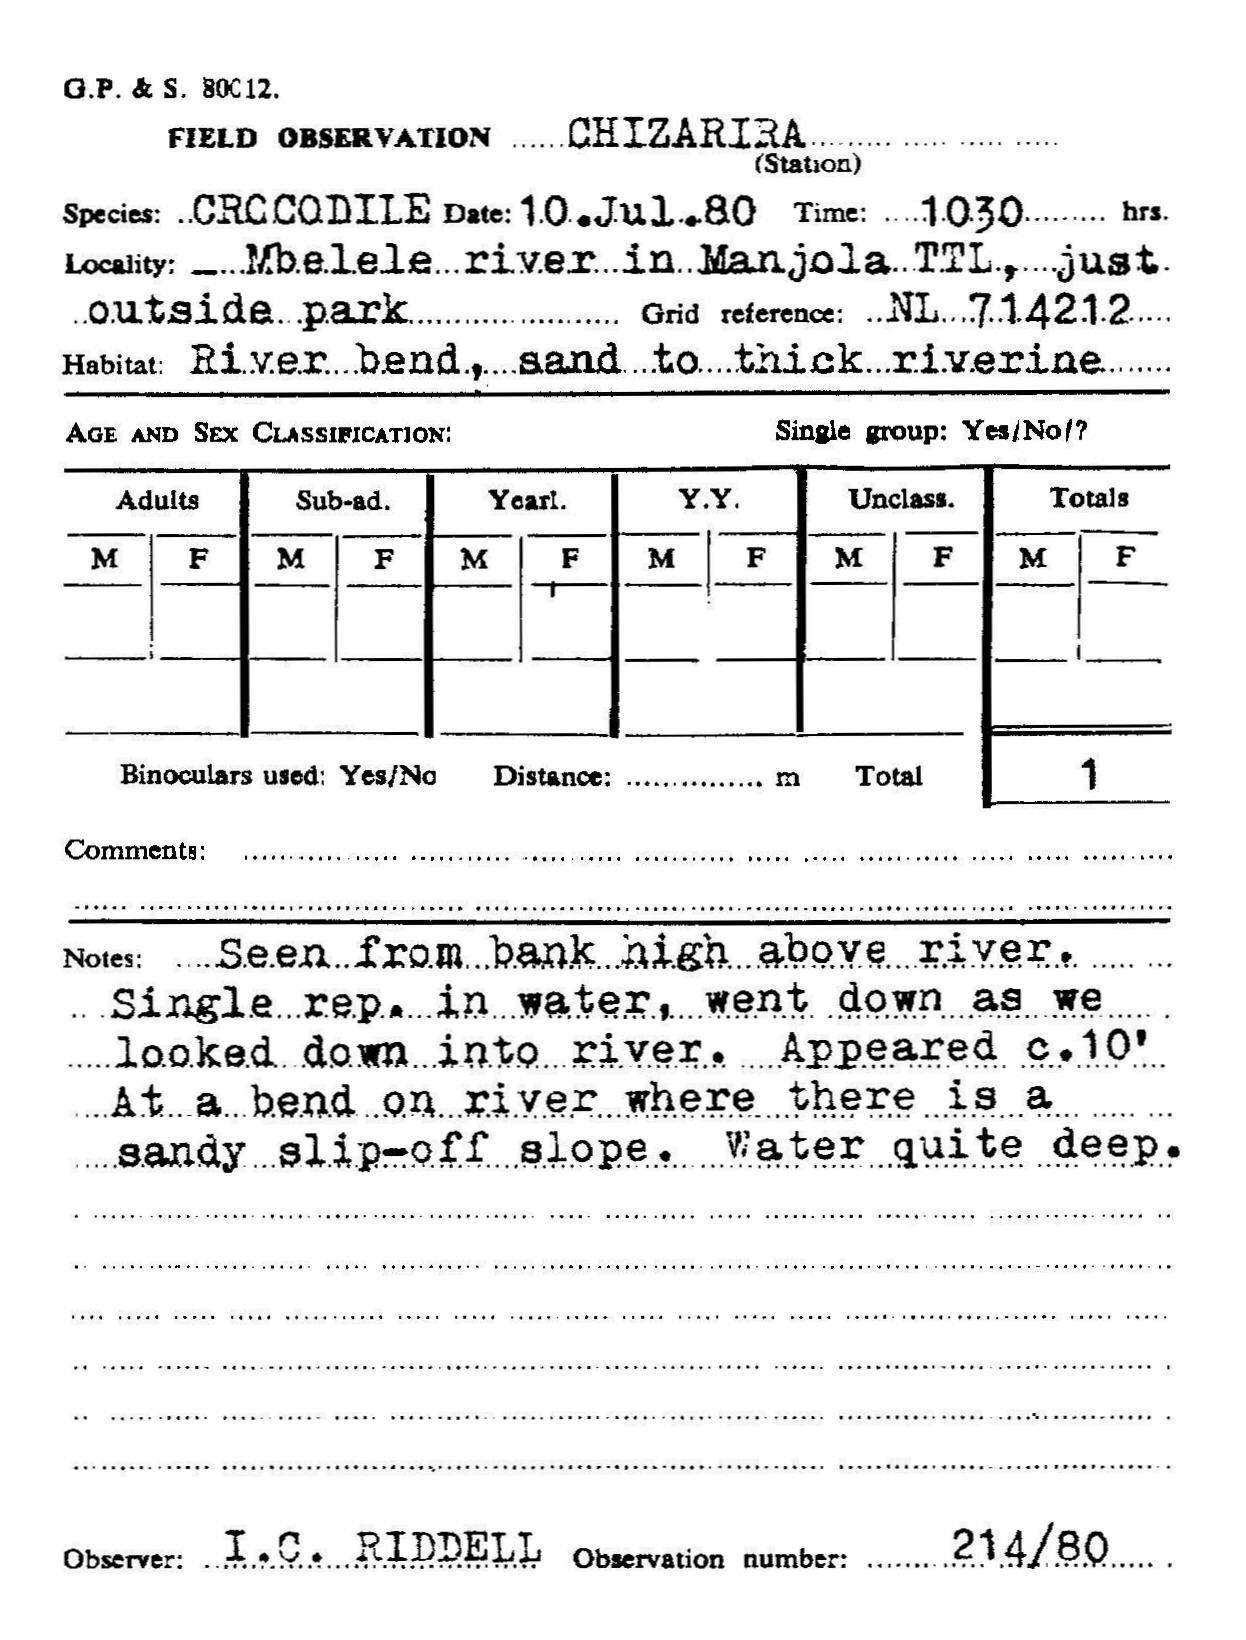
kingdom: Animalia
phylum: Chordata
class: Crocodylia
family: Crocodylidae
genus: Crocodylus
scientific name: Crocodylus niloticus
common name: Nile crocodile
